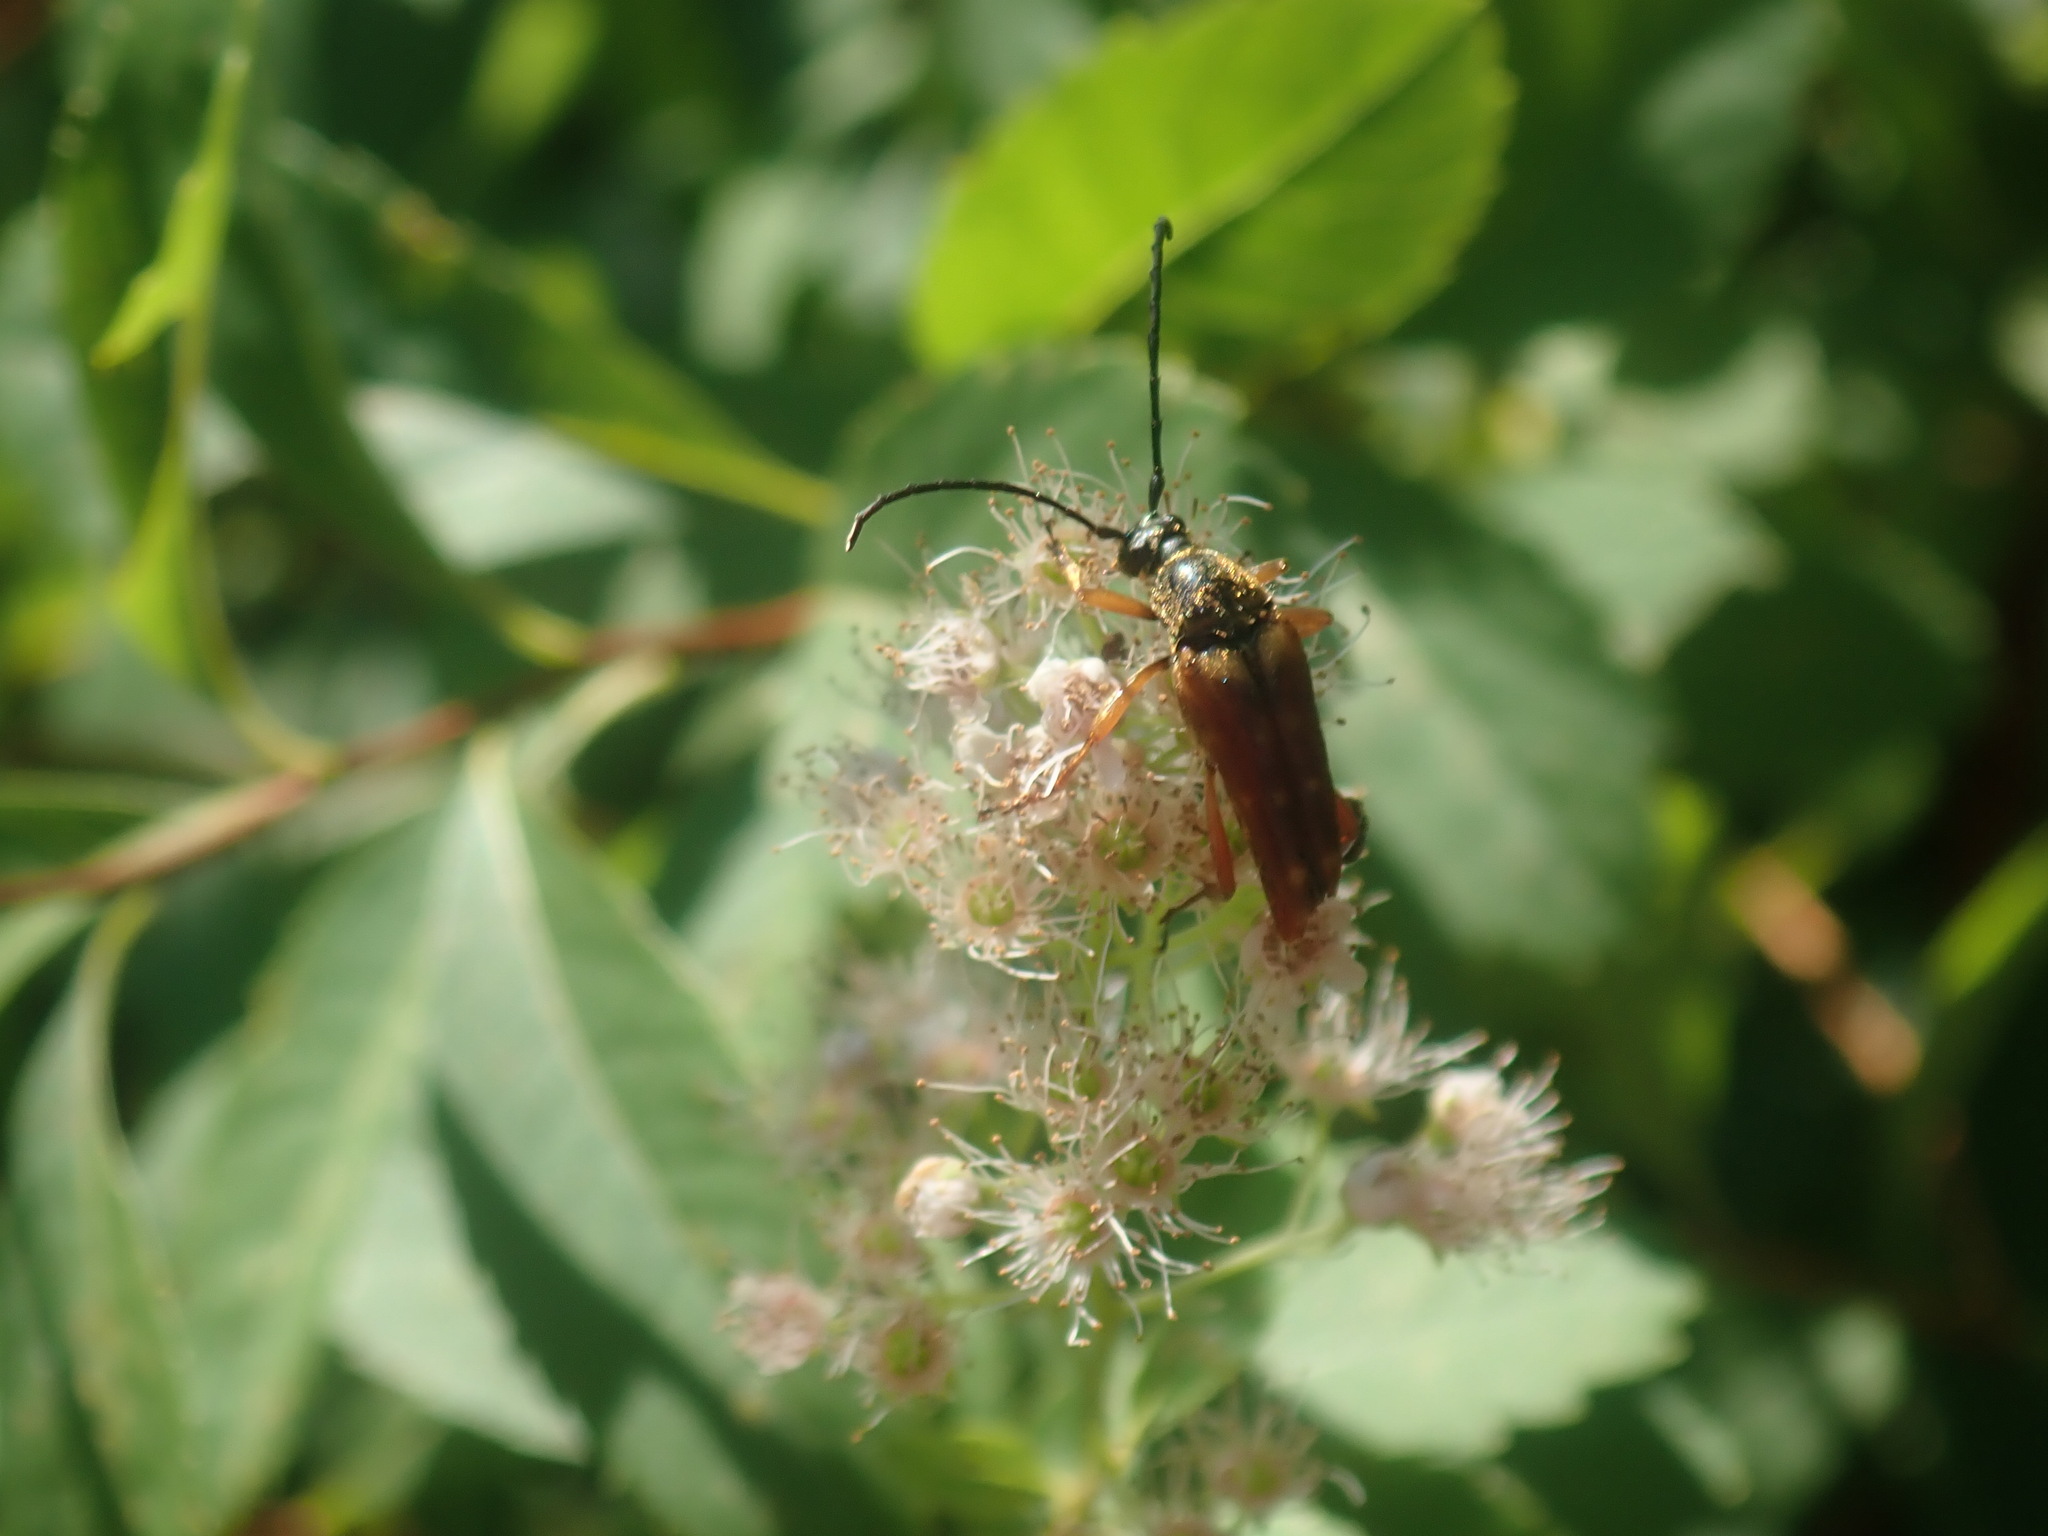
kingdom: Animalia
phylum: Arthropoda
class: Insecta
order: Coleoptera
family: Cerambycidae
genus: Typocerus
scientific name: Typocerus acuticauda
